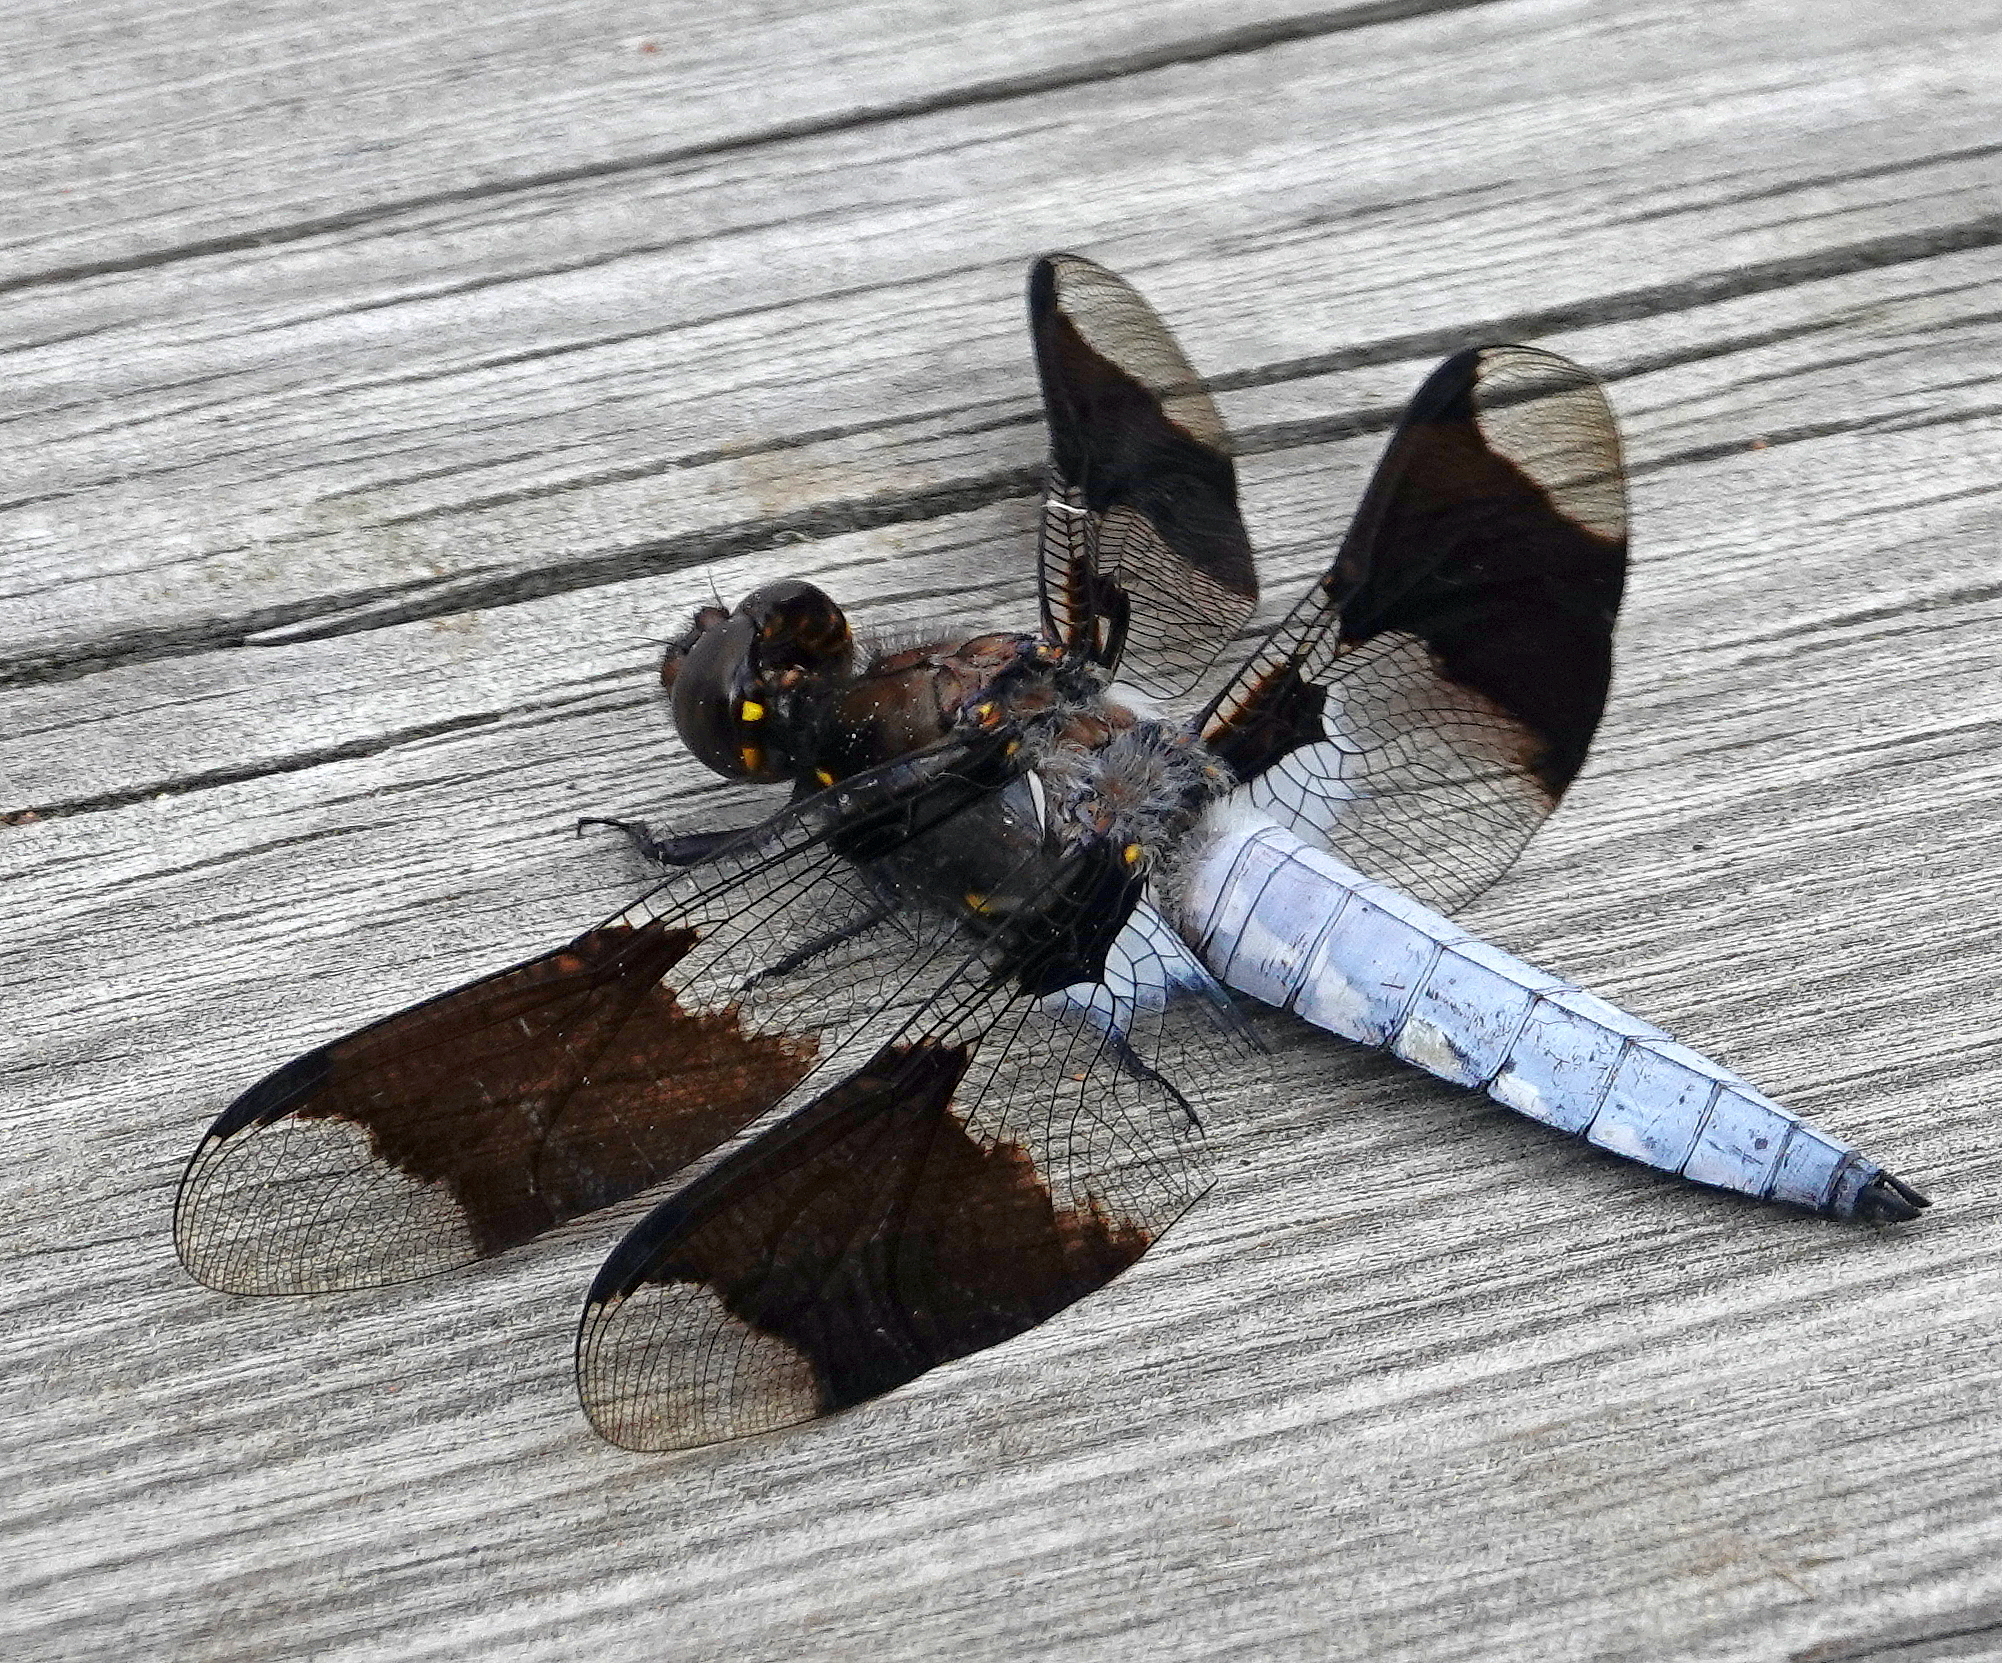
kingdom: Animalia
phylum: Arthropoda
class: Insecta
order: Odonata
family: Libellulidae
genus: Plathemis
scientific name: Plathemis lydia
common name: Common whitetail
